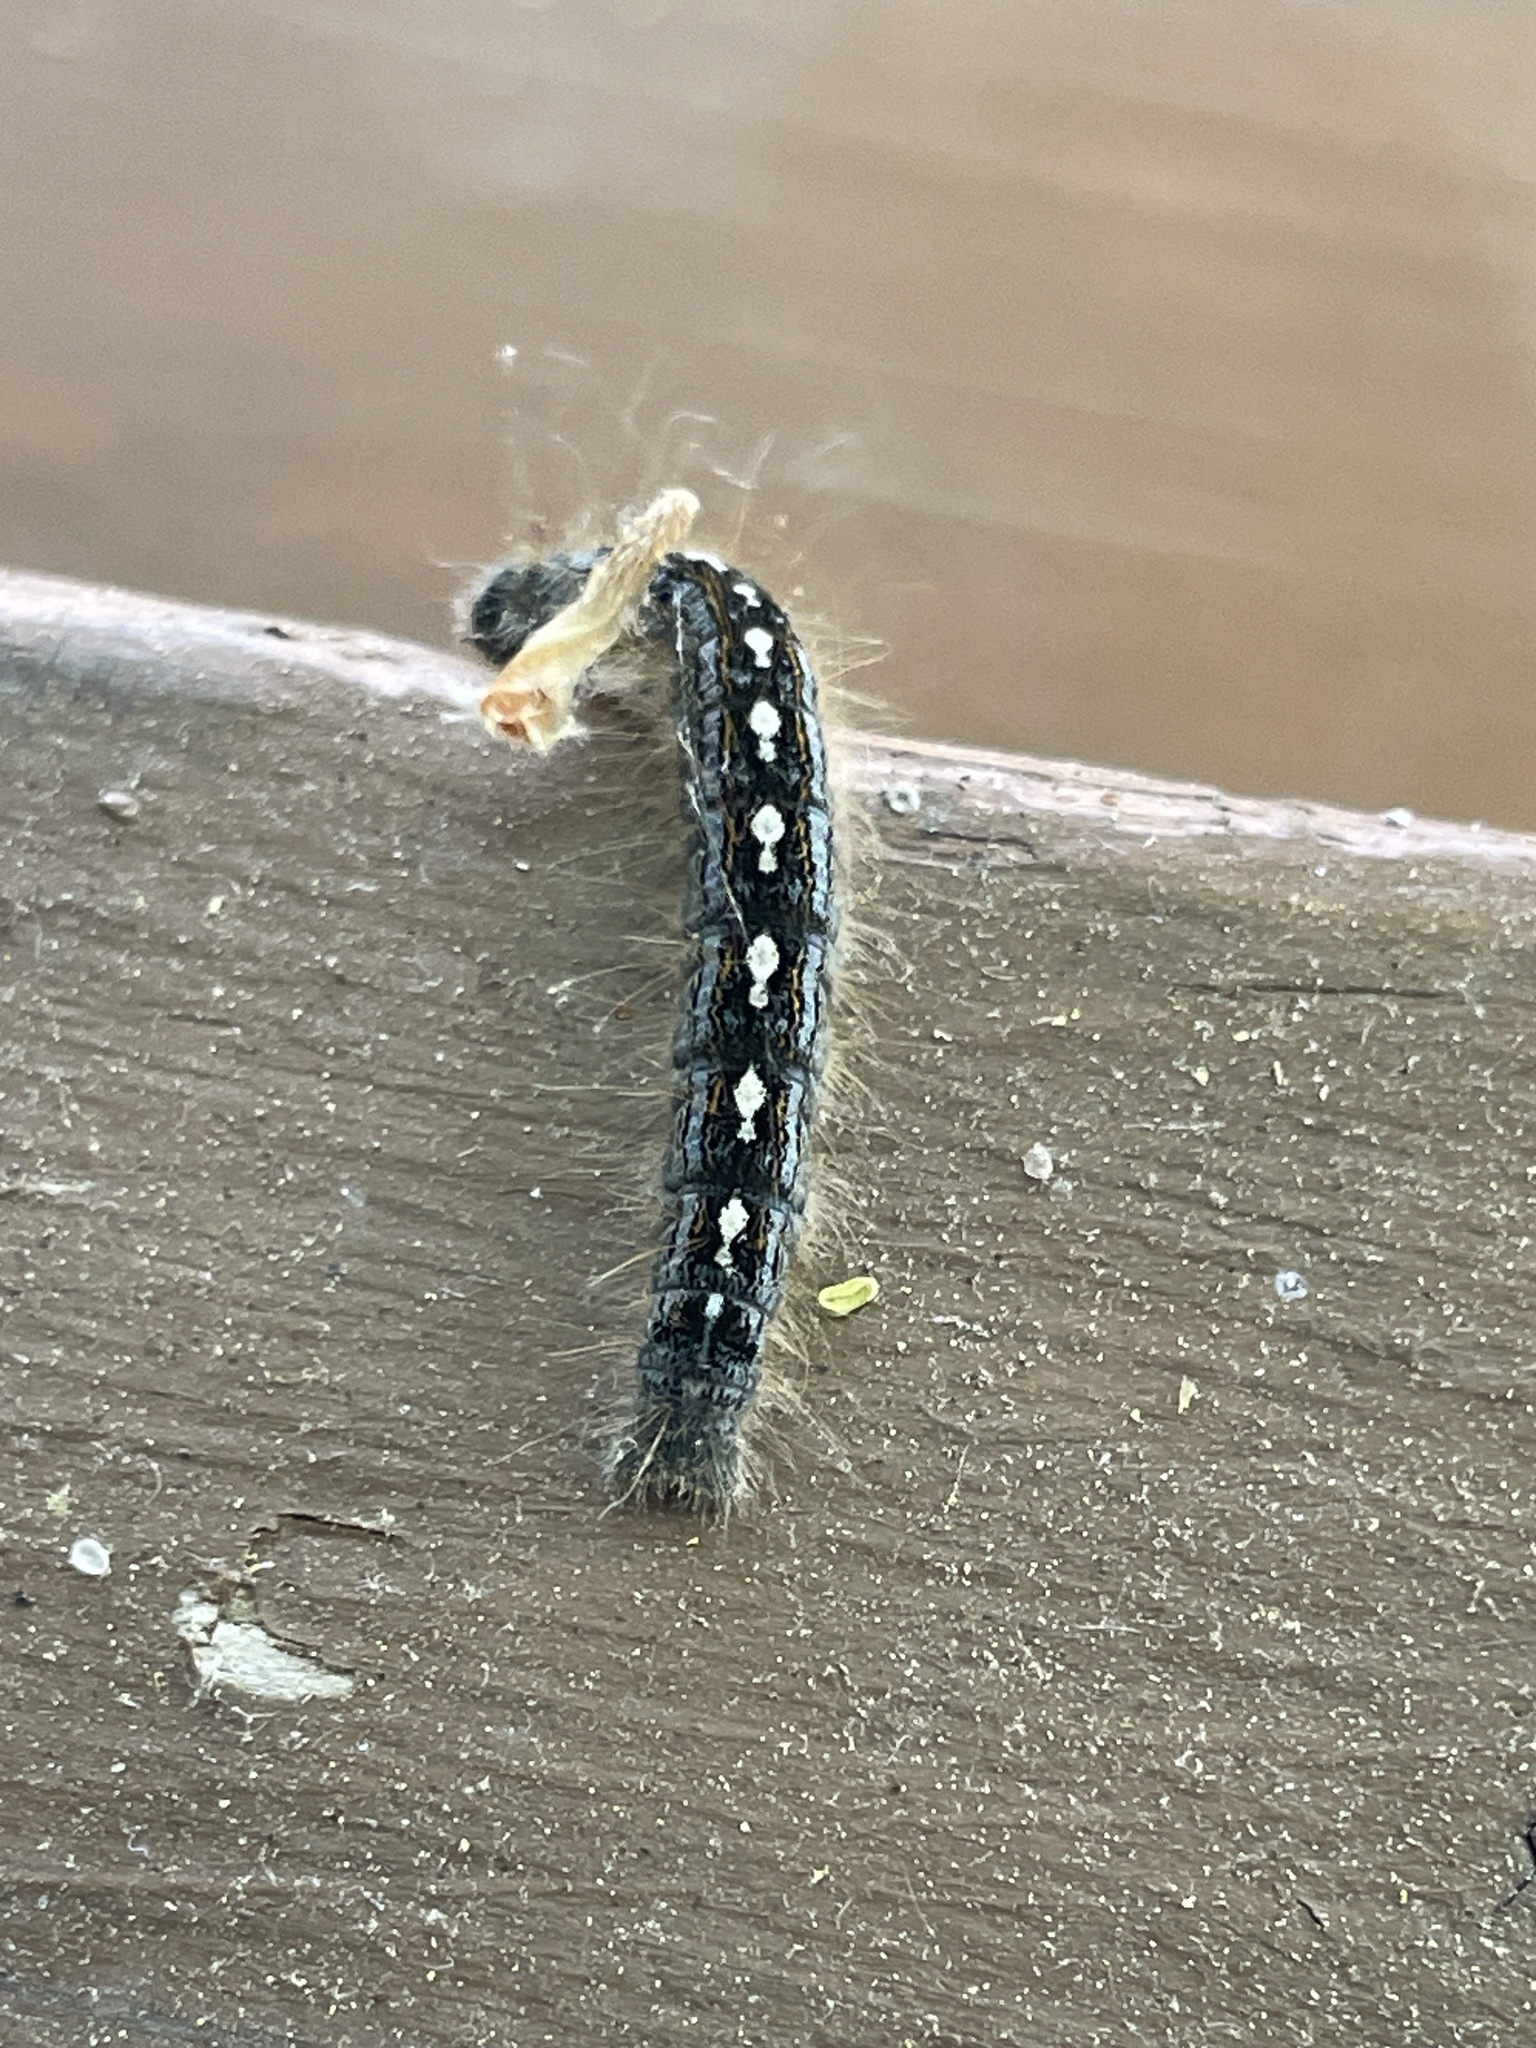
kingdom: Animalia
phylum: Arthropoda
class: Insecta
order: Lepidoptera
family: Lasiocampidae
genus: Malacosoma
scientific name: Malacosoma disstria
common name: Forest tent caterpillar
